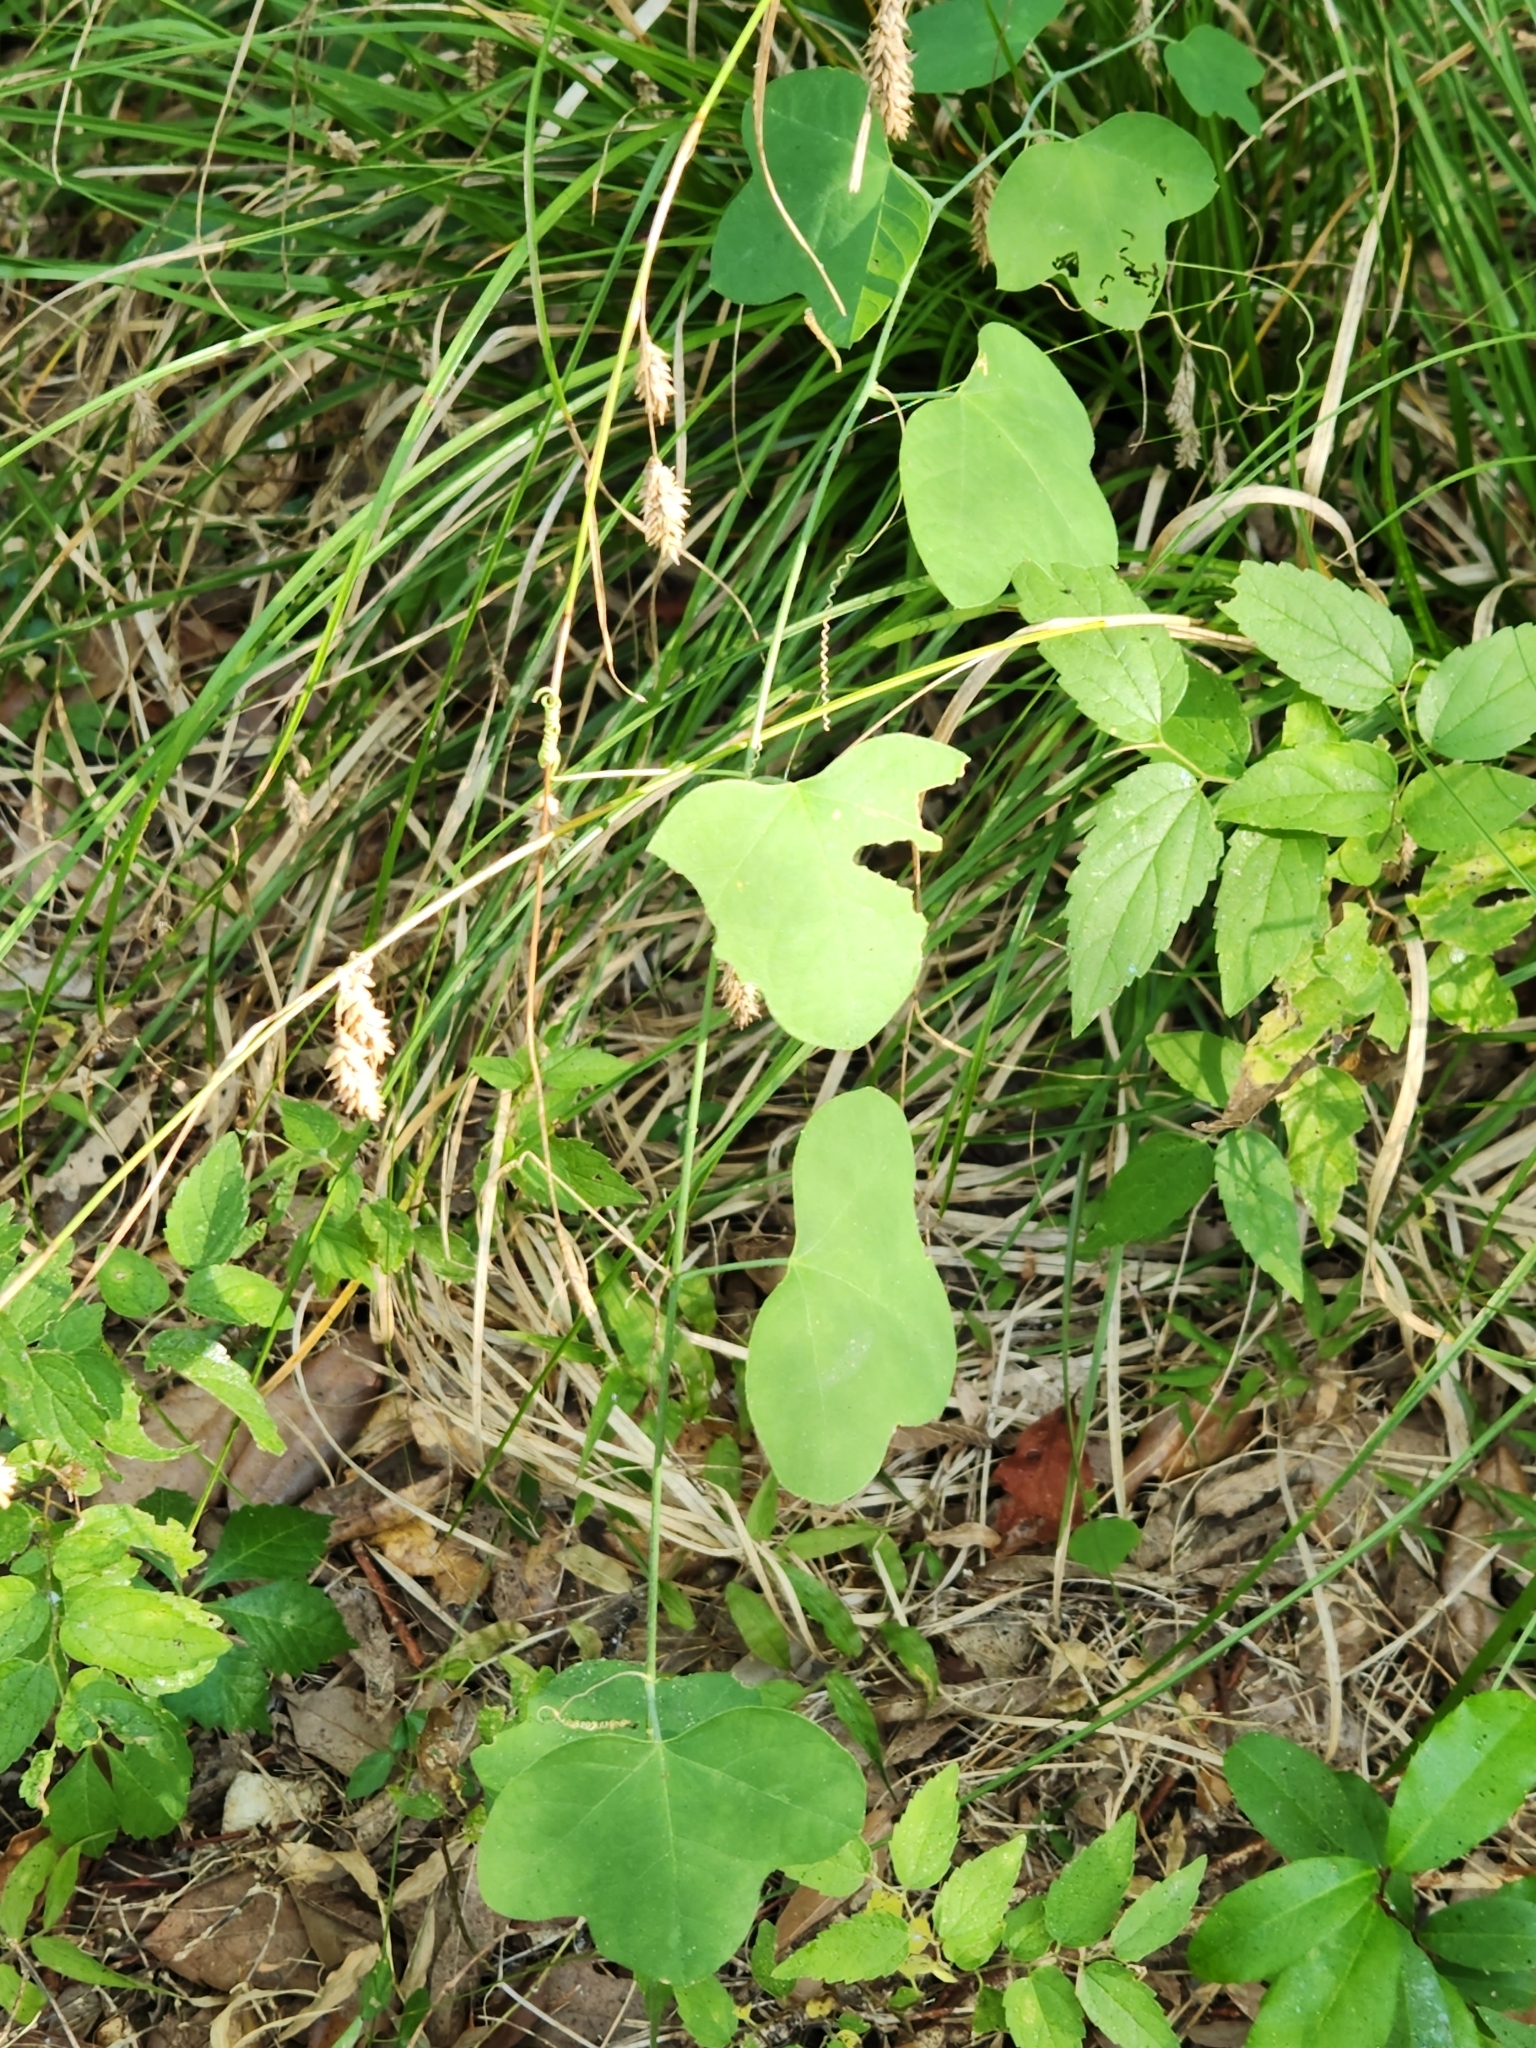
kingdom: Plantae
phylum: Tracheophyta
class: Magnoliopsida
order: Malpighiales
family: Passifloraceae
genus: Passiflora
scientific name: Passiflora lutea
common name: Yellow passionflower
